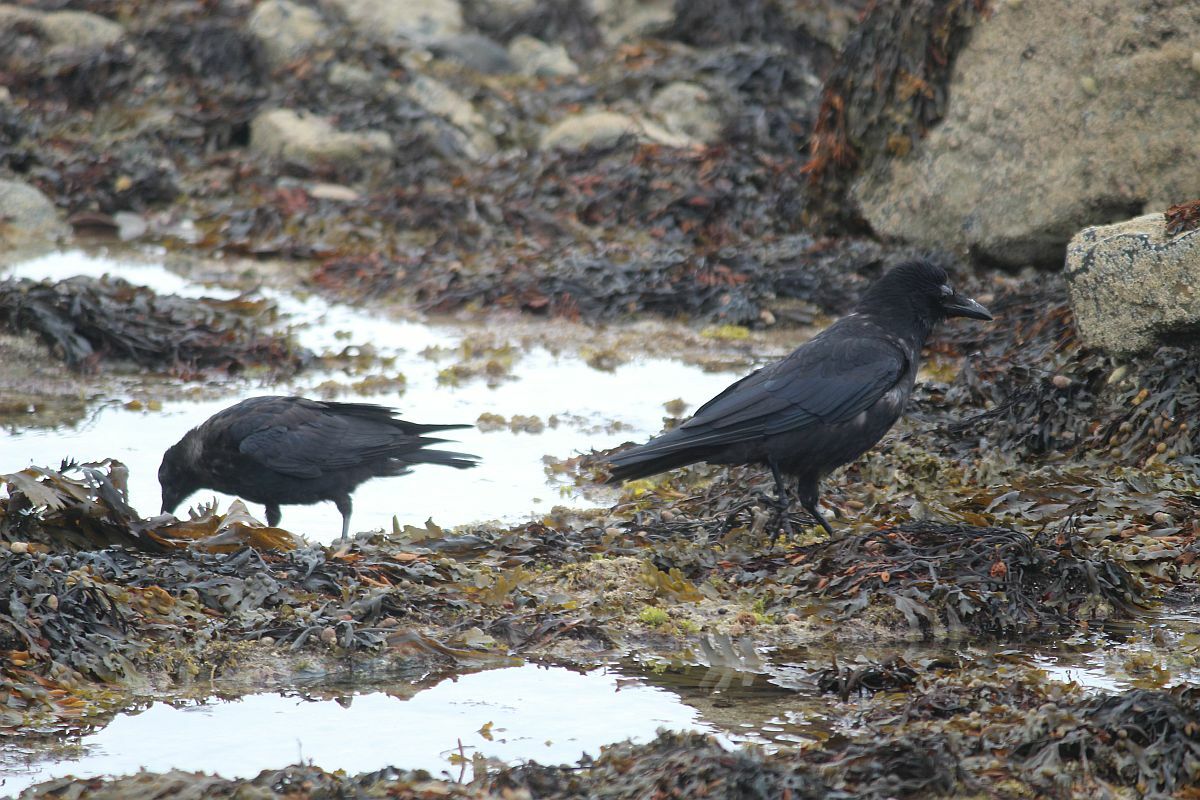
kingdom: Animalia
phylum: Chordata
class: Aves
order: Passeriformes
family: Corvidae
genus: Corvus
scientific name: Corvus corone
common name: Carrion crow
